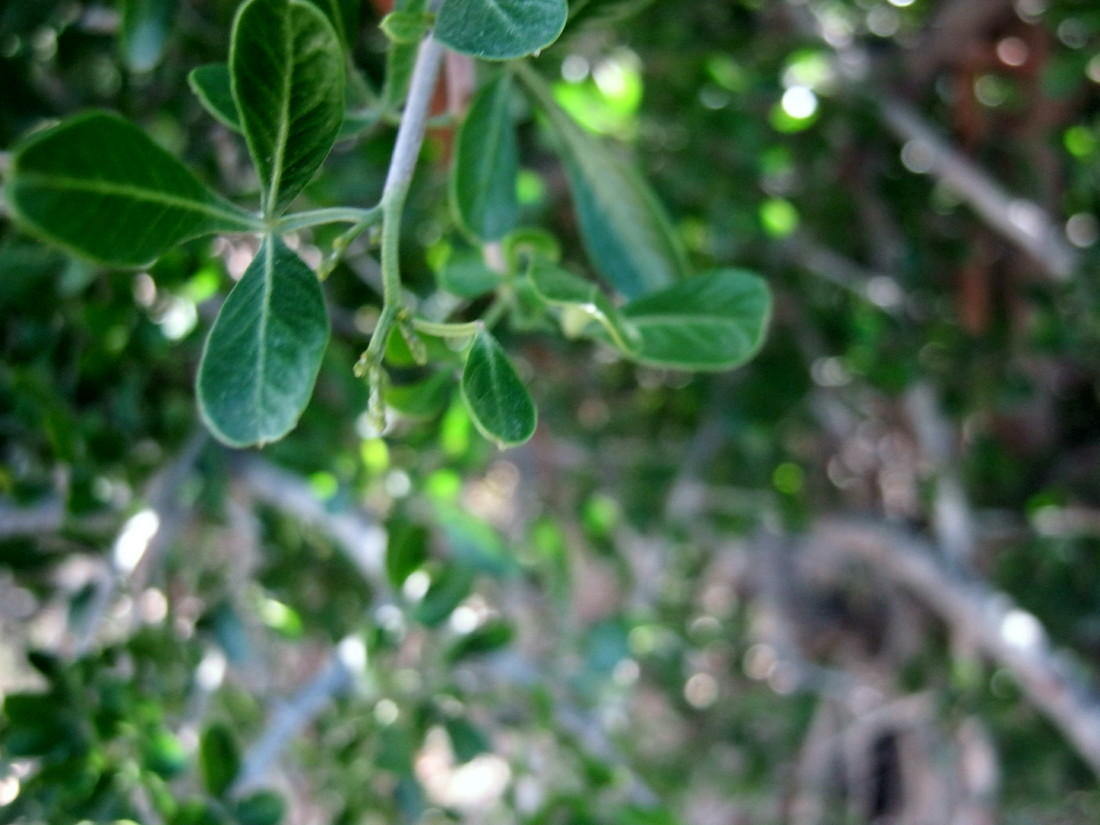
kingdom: Plantae
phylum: Tracheophyta
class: Magnoliopsida
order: Sapindales
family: Anacardiaceae
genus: Searsia
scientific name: Searsia pallens
